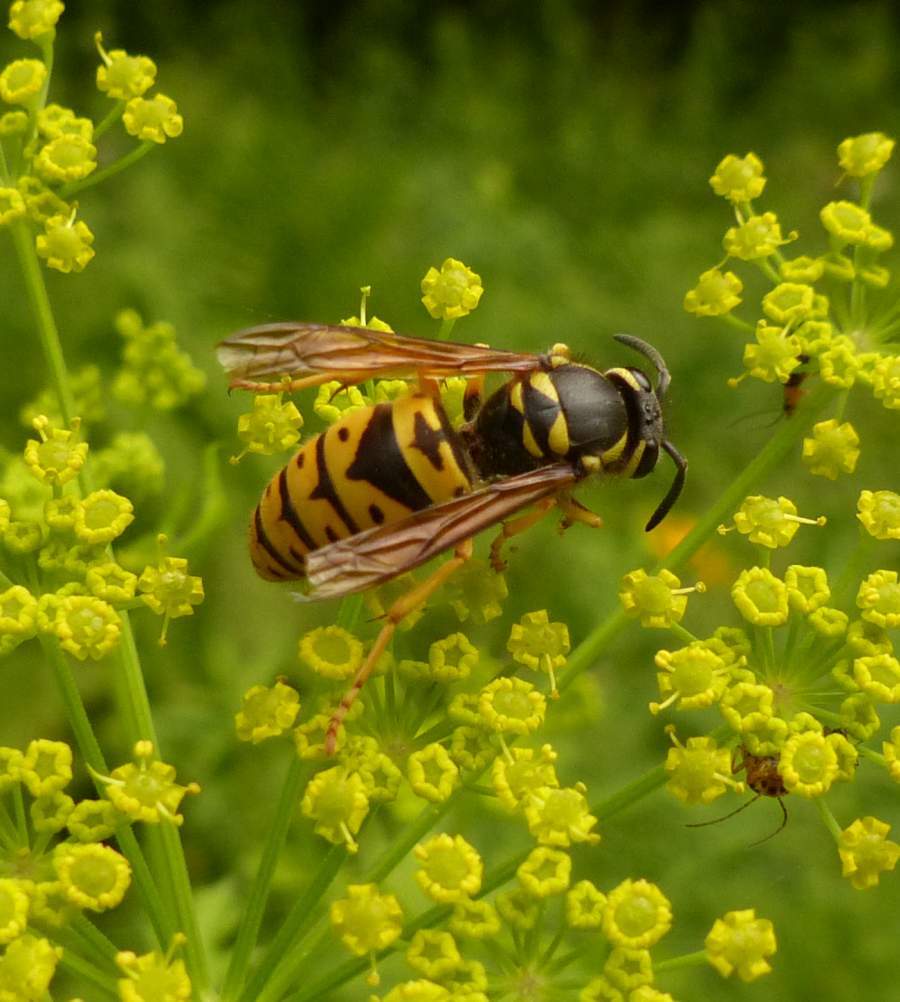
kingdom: Animalia
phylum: Arthropoda
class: Insecta
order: Hymenoptera
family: Vespidae
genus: Vespula
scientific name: Vespula maculifrons
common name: Eastern yellowjacket
